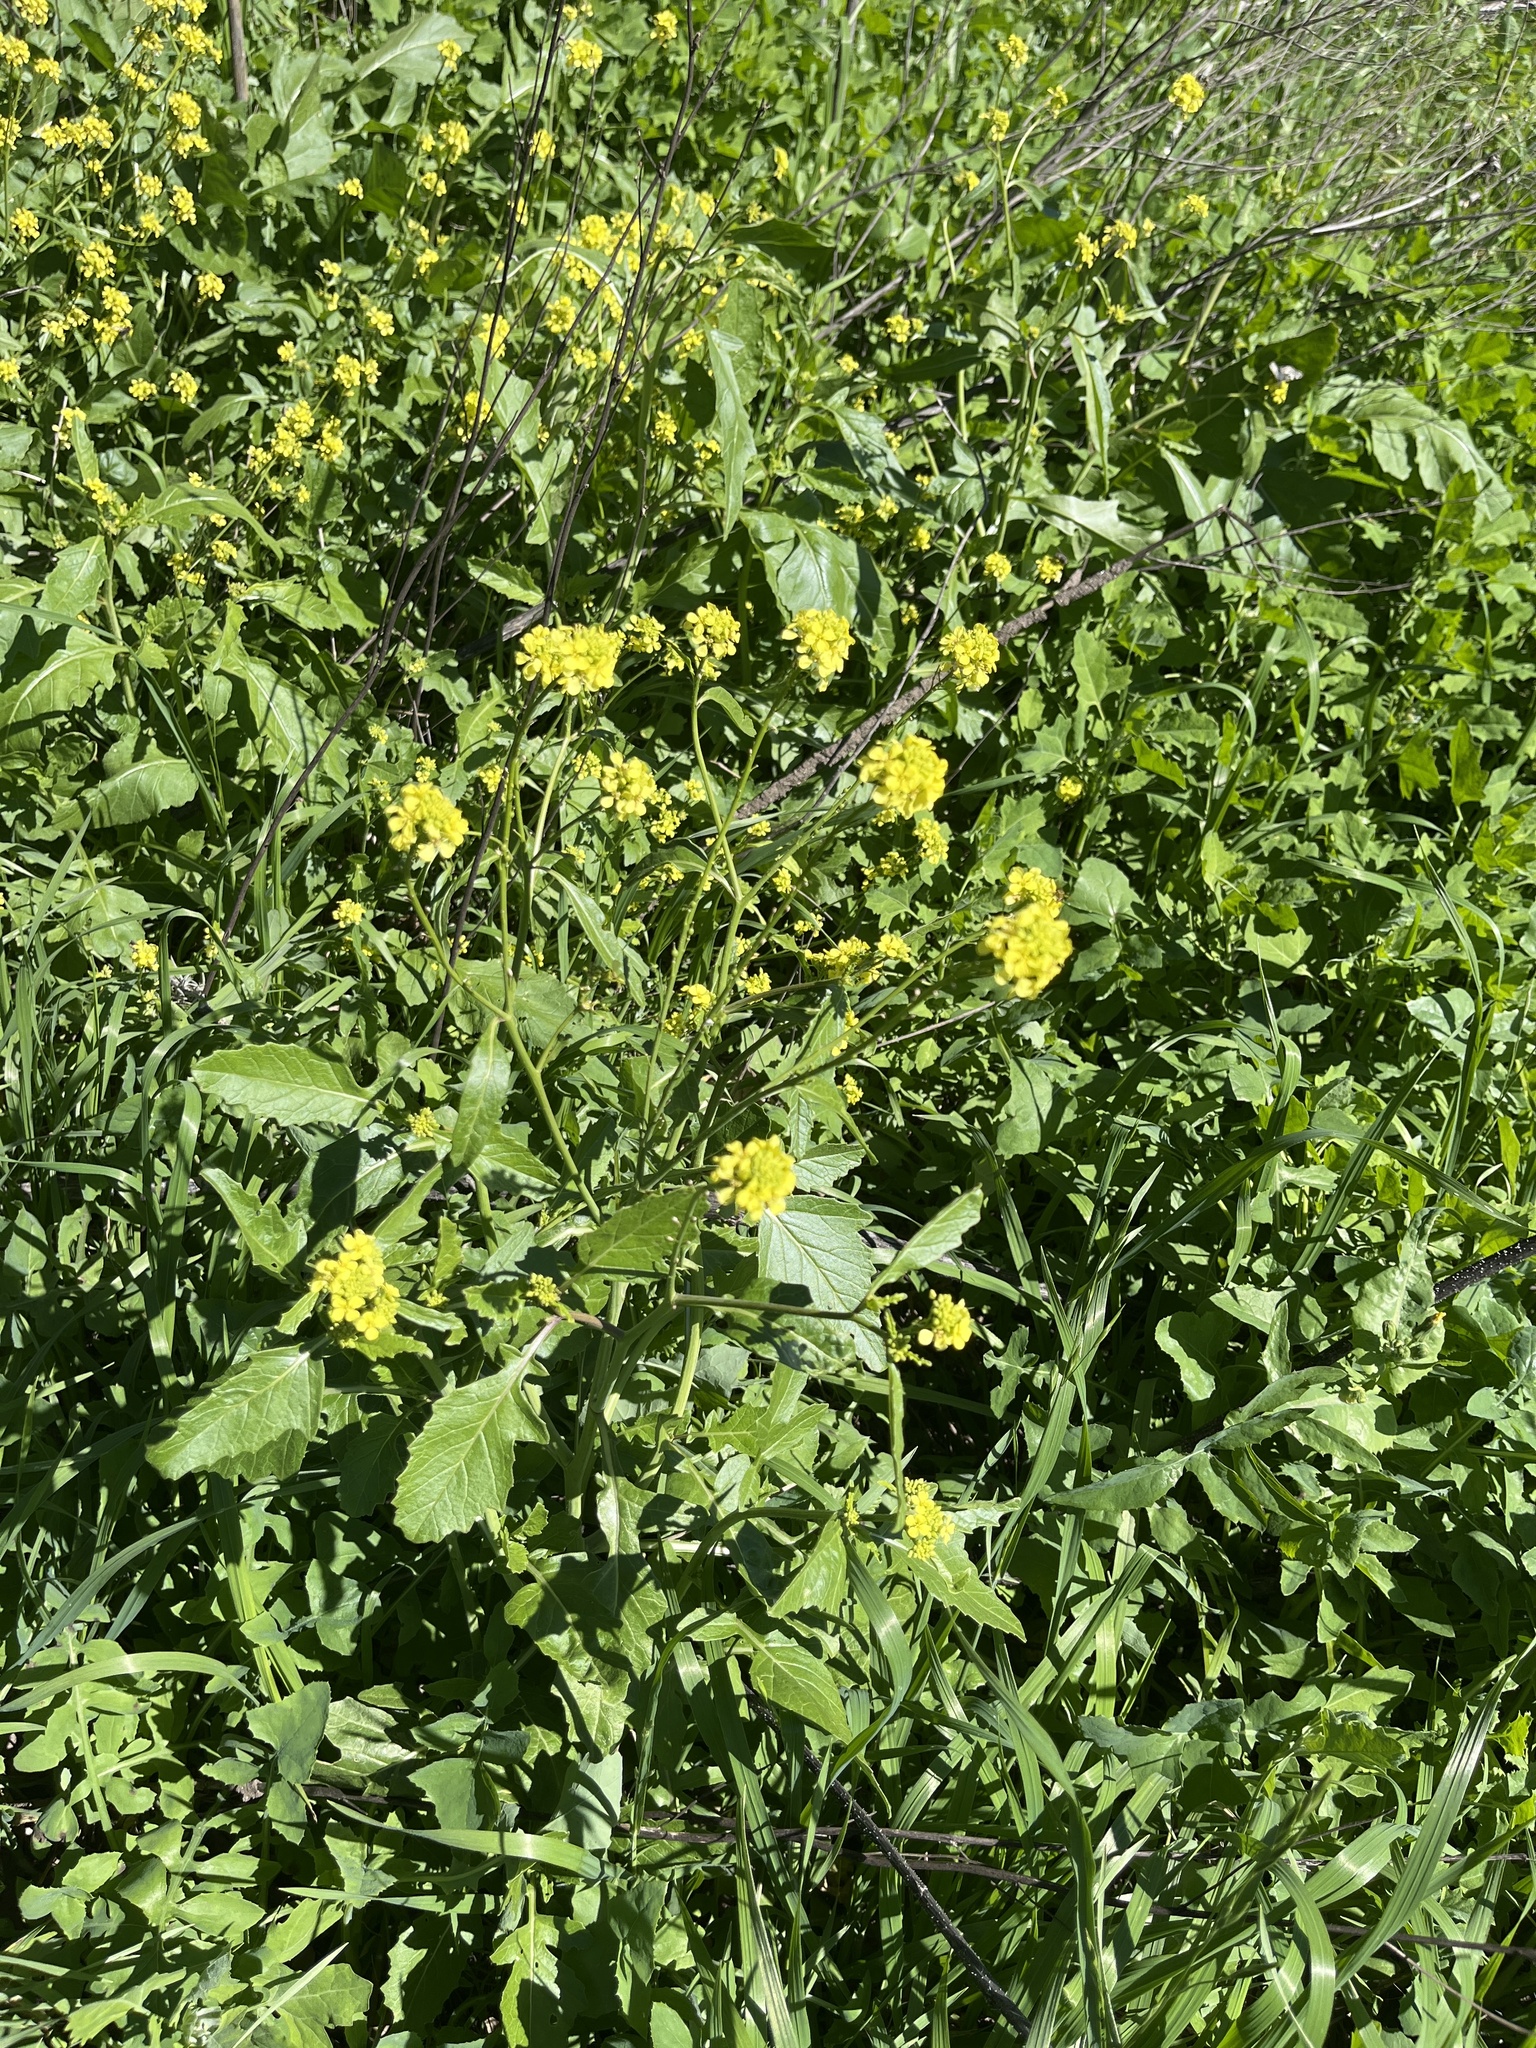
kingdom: Plantae
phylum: Tracheophyta
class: Magnoliopsida
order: Brassicales
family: Brassicaceae
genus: Rapistrum
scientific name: Rapistrum rugosum
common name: Annual bastardcabbage
